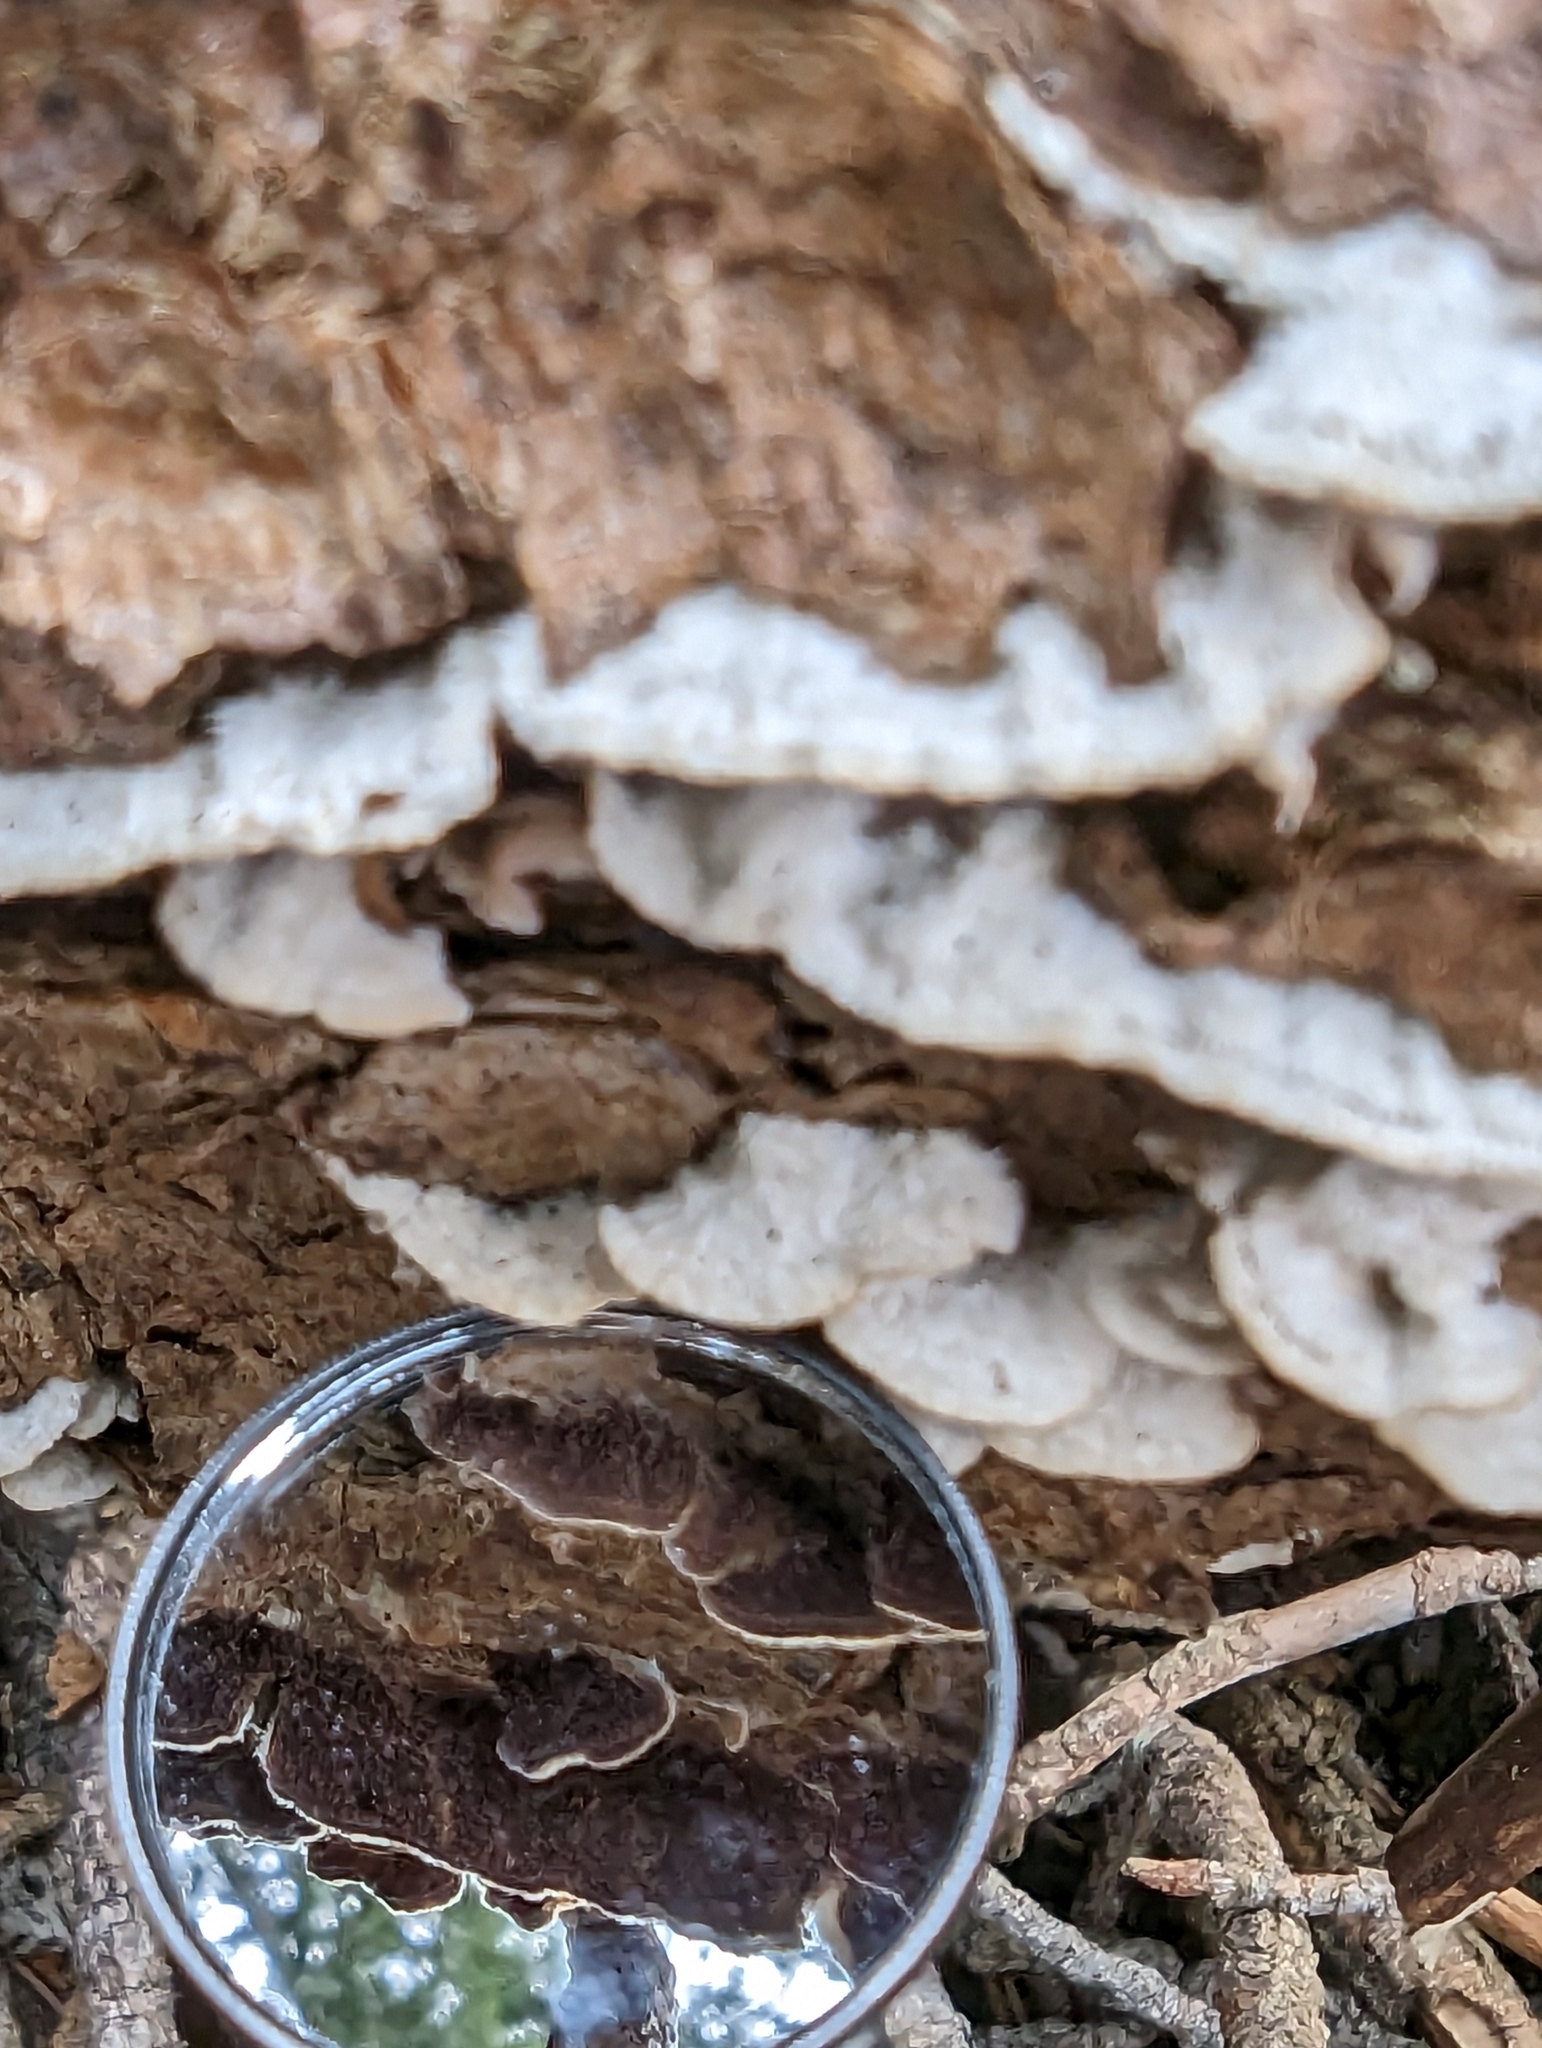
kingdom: Fungi
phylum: Basidiomycota
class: Agaricomycetes
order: Hymenochaetales
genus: Trichaptum
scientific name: Trichaptum abietinum
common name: Purplepore bracket
